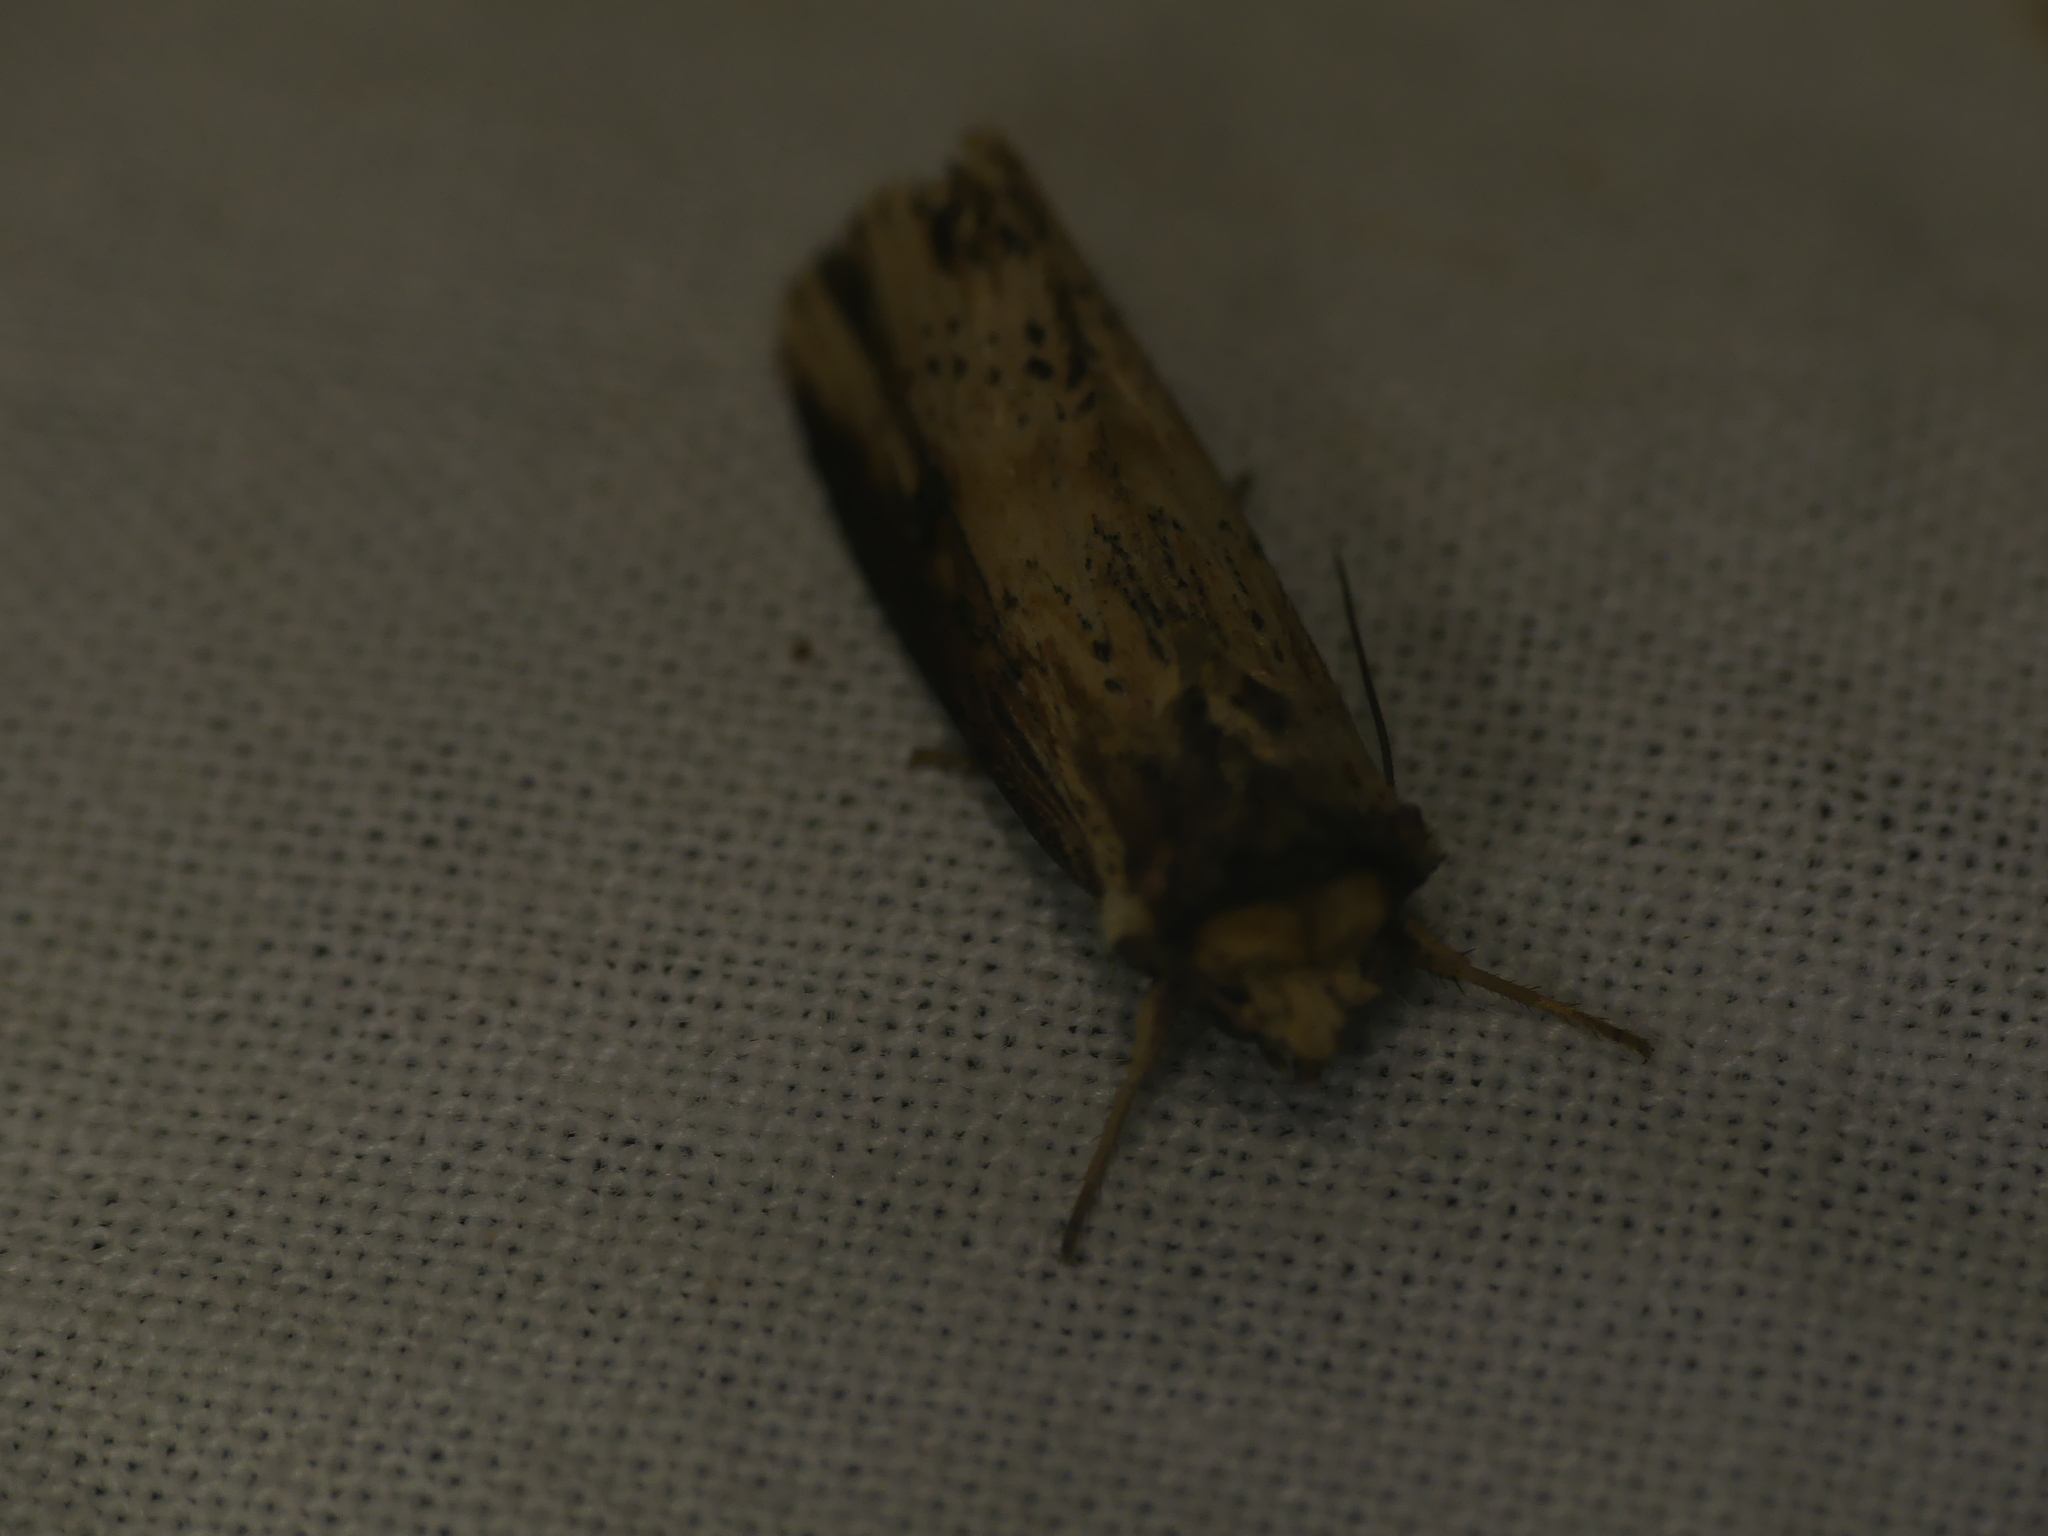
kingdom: Animalia
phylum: Arthropoda
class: Insecta
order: Lepidoptera
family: Noctuidae
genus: Axylia
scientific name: Axylia putris
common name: Flame
